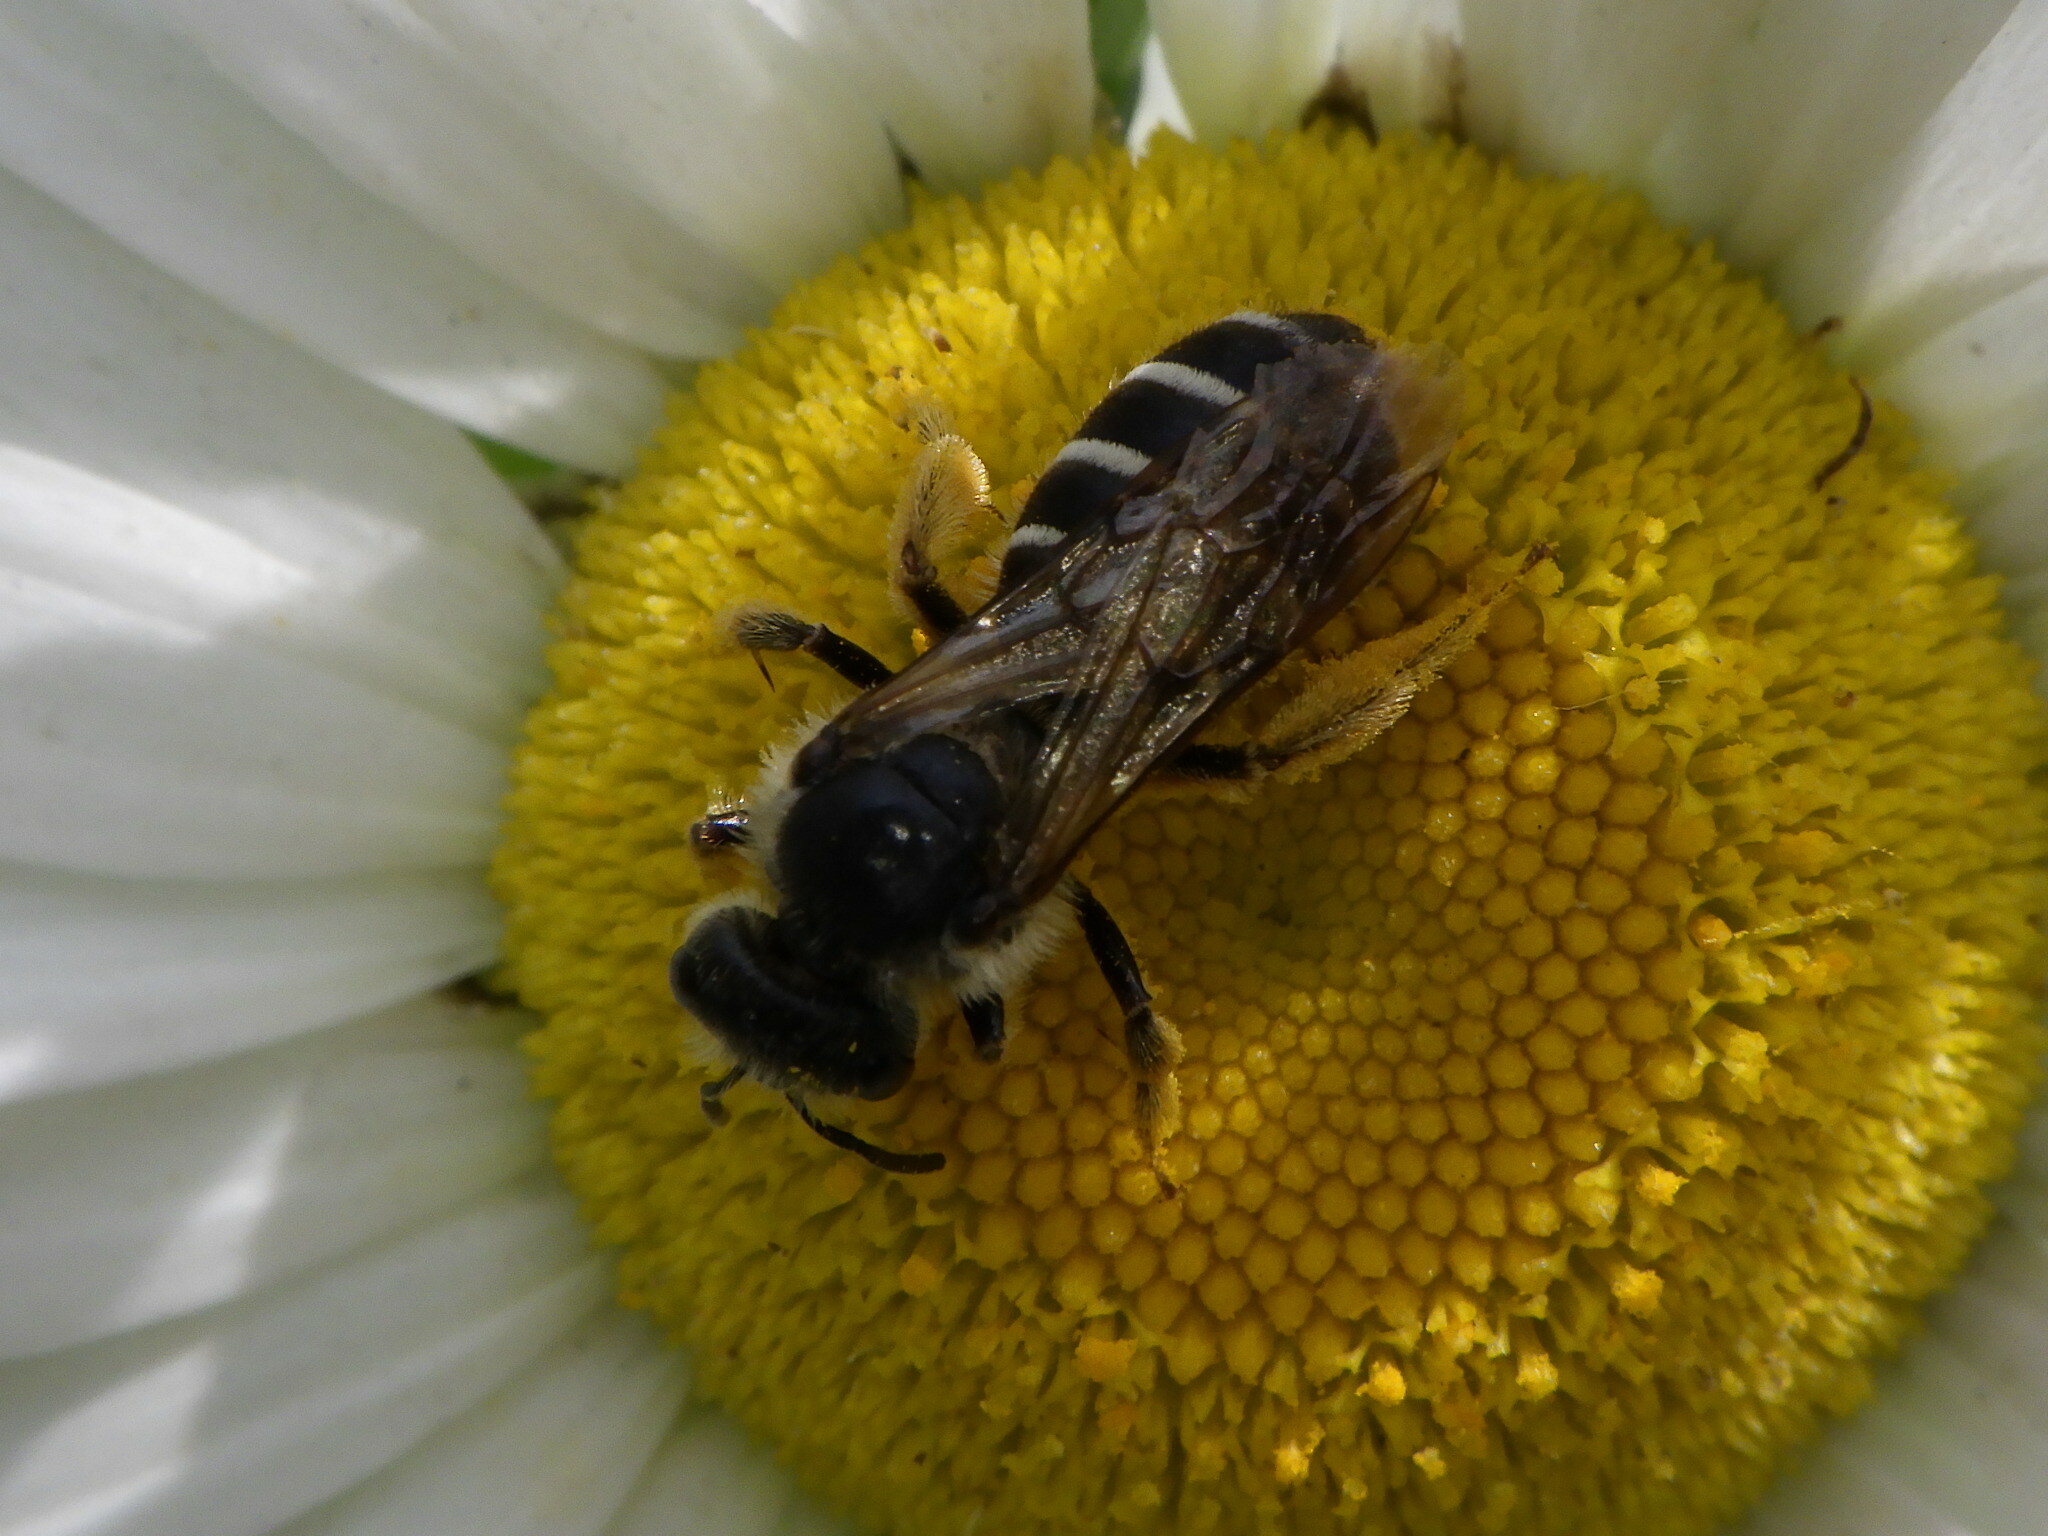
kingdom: Animalia
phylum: Arthropoda
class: Insecta
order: Hymenoptera
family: Halictidae
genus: Halictus
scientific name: Halictus rubicundus
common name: Orange-legged furrow bee
